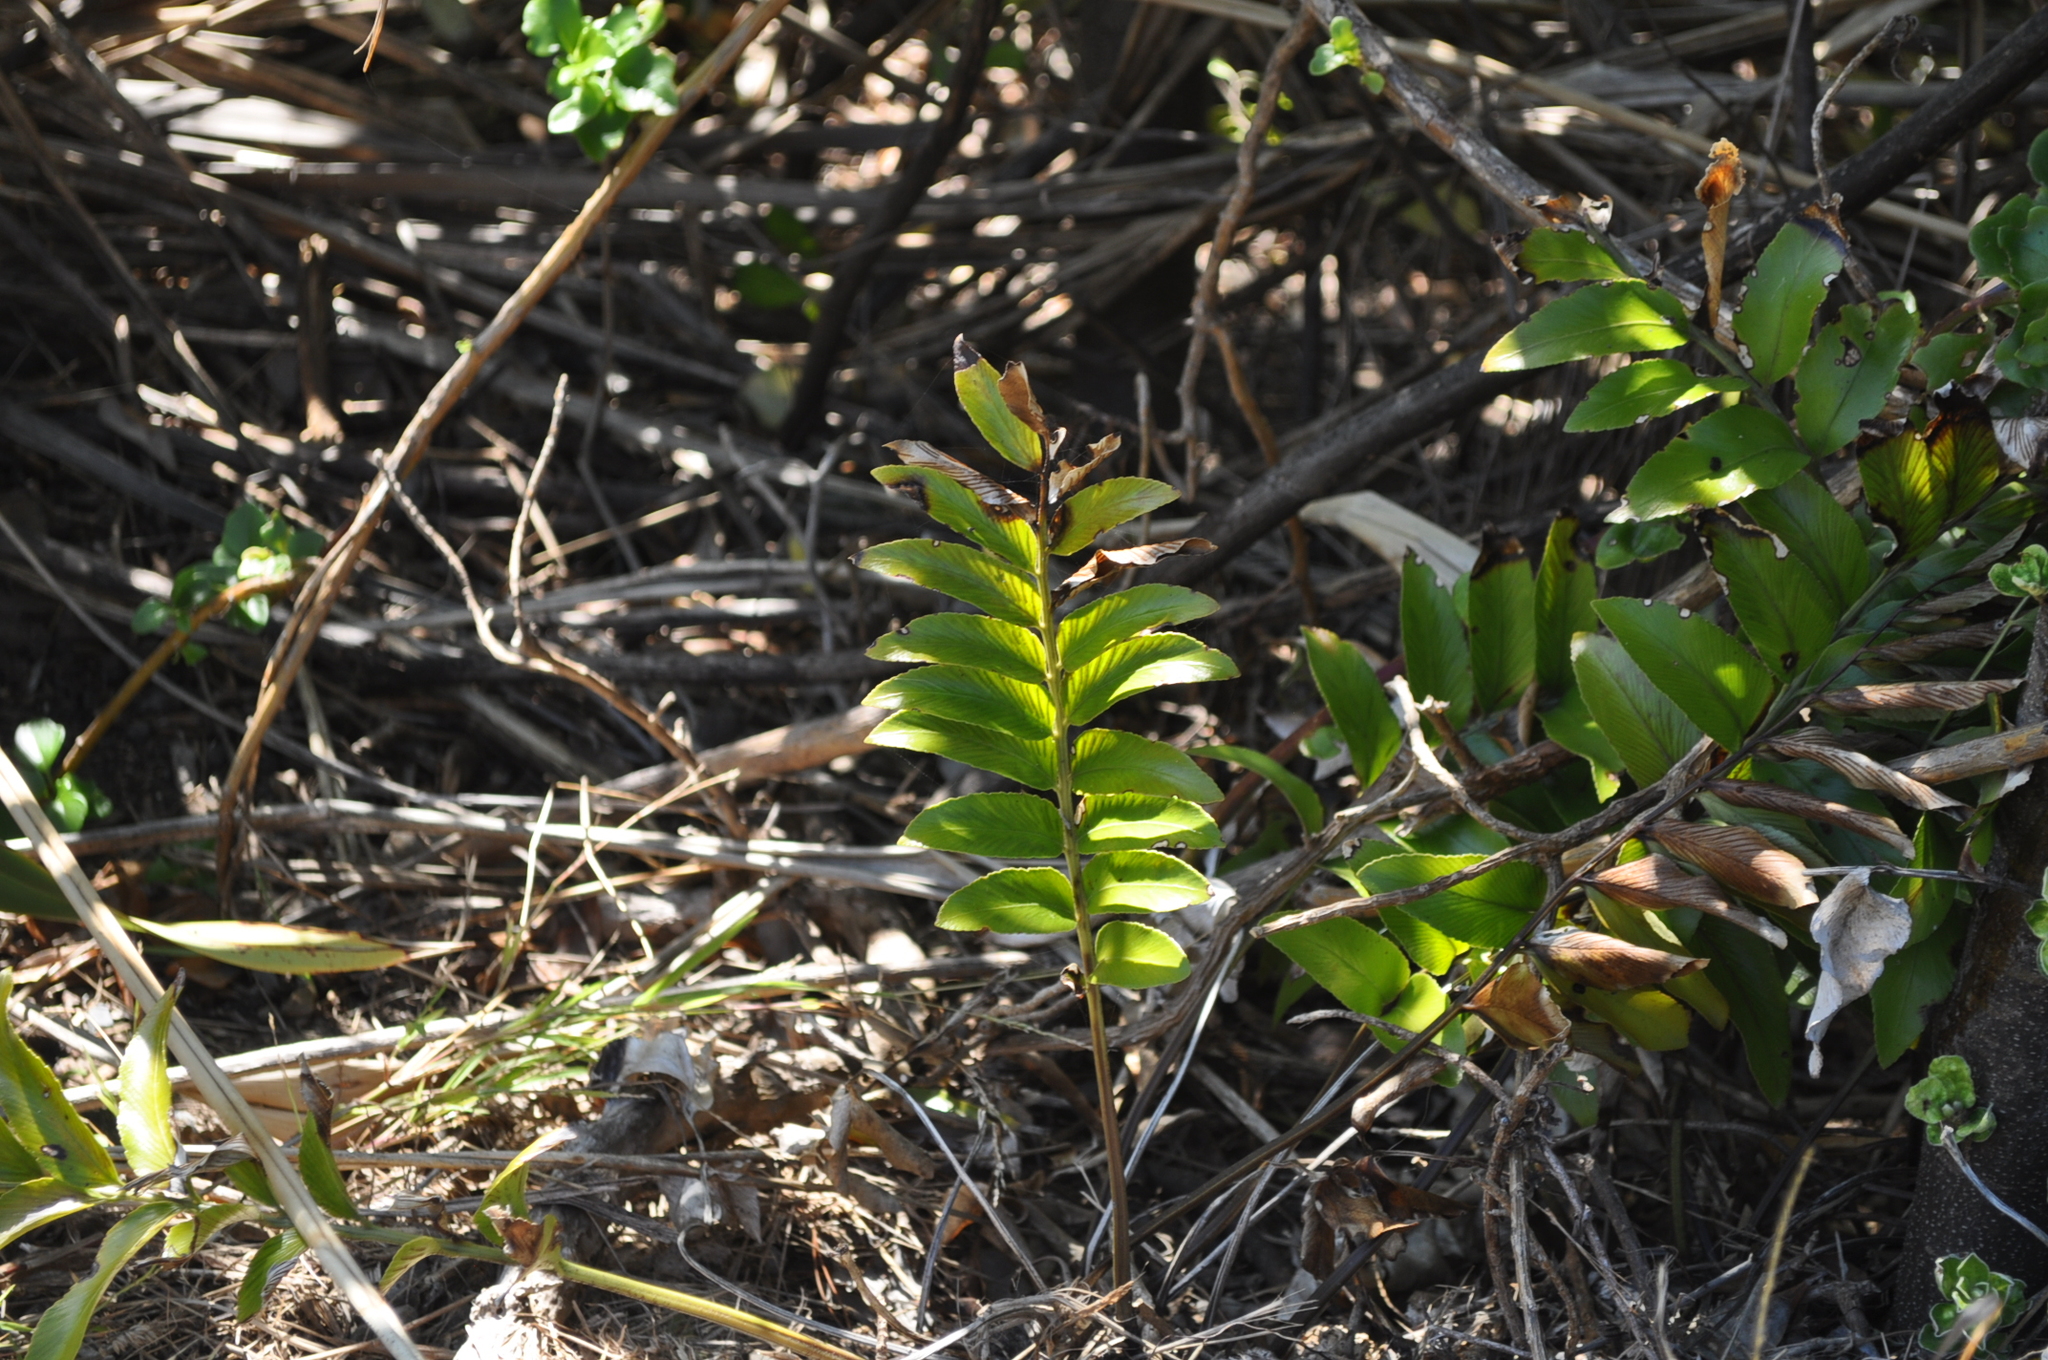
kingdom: Plantae
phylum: Tracheophyta
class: Polypodiopsida
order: Polypodiales
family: Aspleniaceae
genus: Asplenium
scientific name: Asplenium oblongifolium
